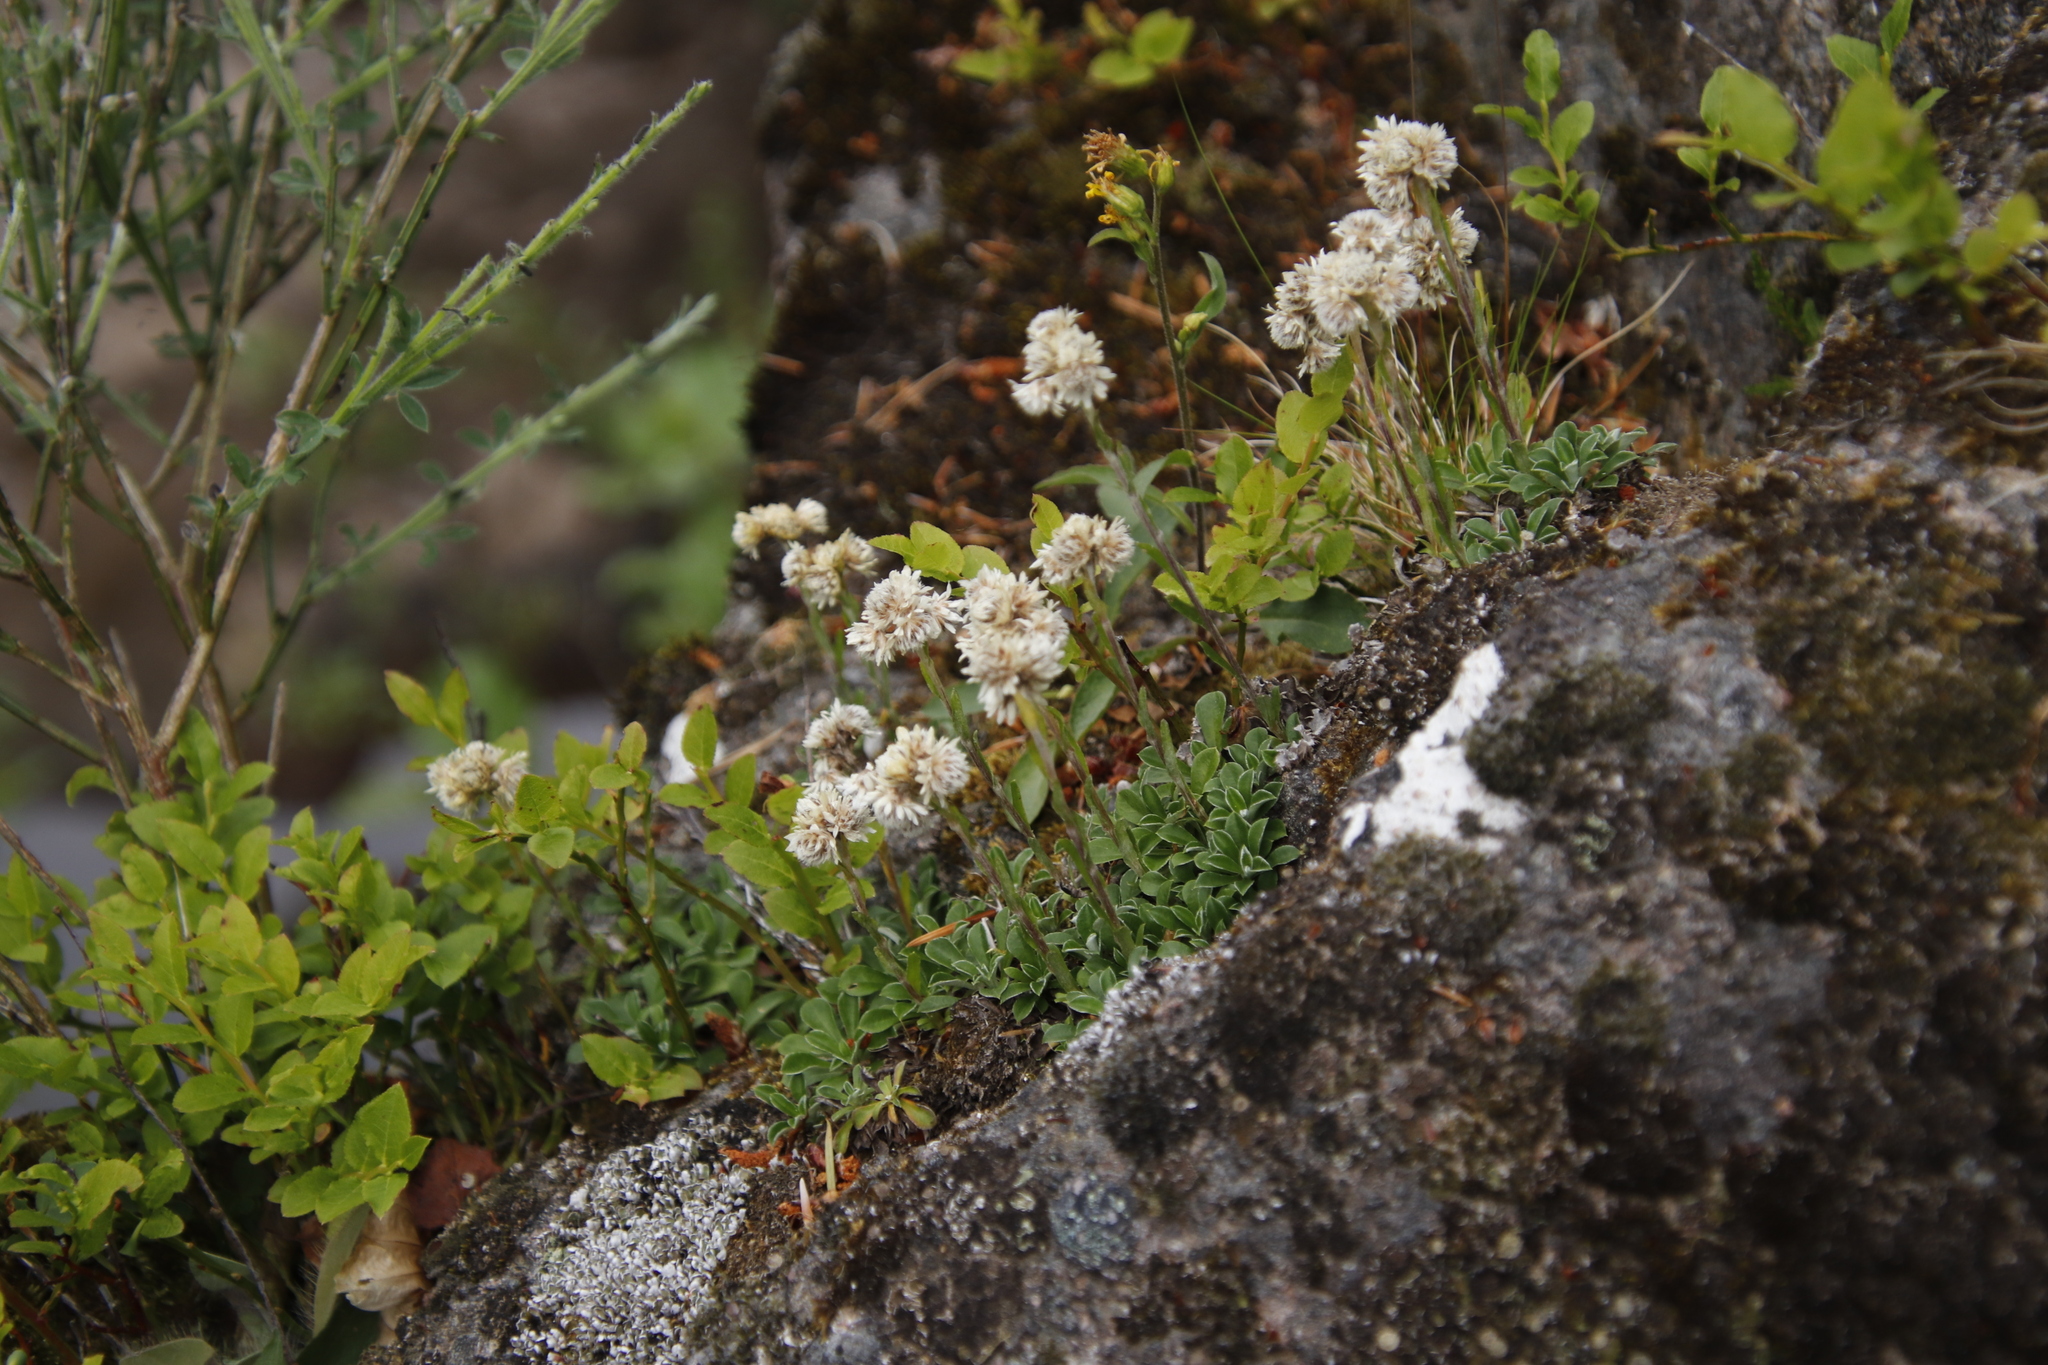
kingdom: Plantae
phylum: Tracheophyta
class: Magnoliopsida
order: Asterales
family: Asteraceae
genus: Antennaria
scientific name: Antennaria dioica
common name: Mountain everlasting
